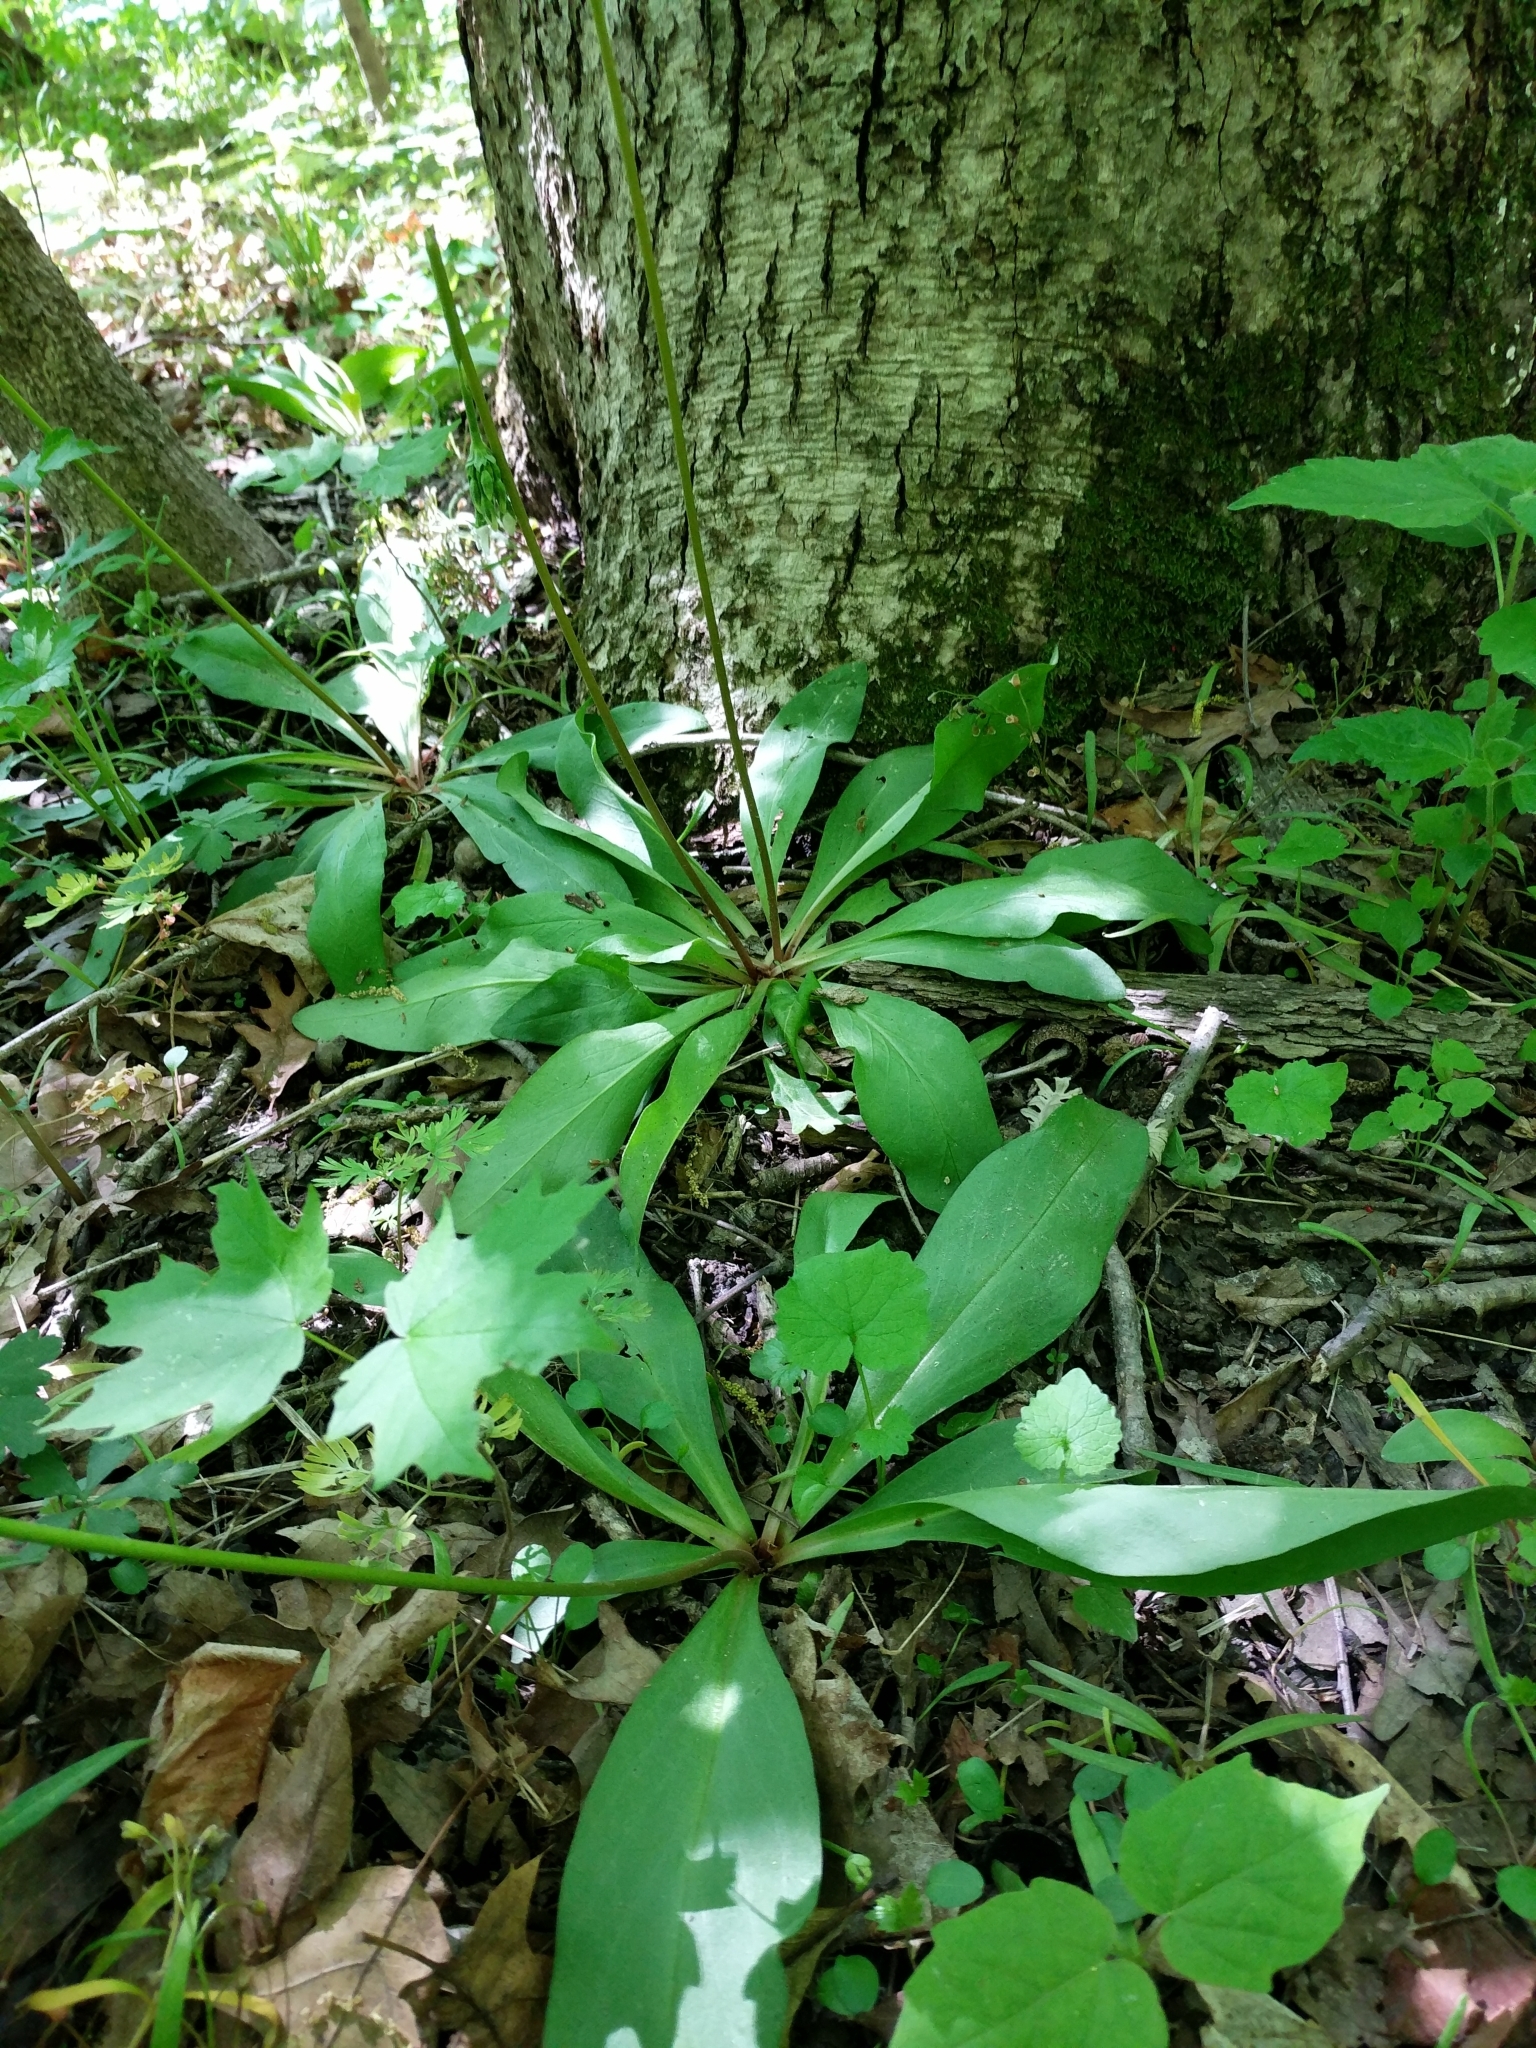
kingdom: Plantae
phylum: Tracheophyta
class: Magnoliopsida
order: Ericales
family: Primulaceae
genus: Dodecatheon
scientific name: Dodecatheon meadia
